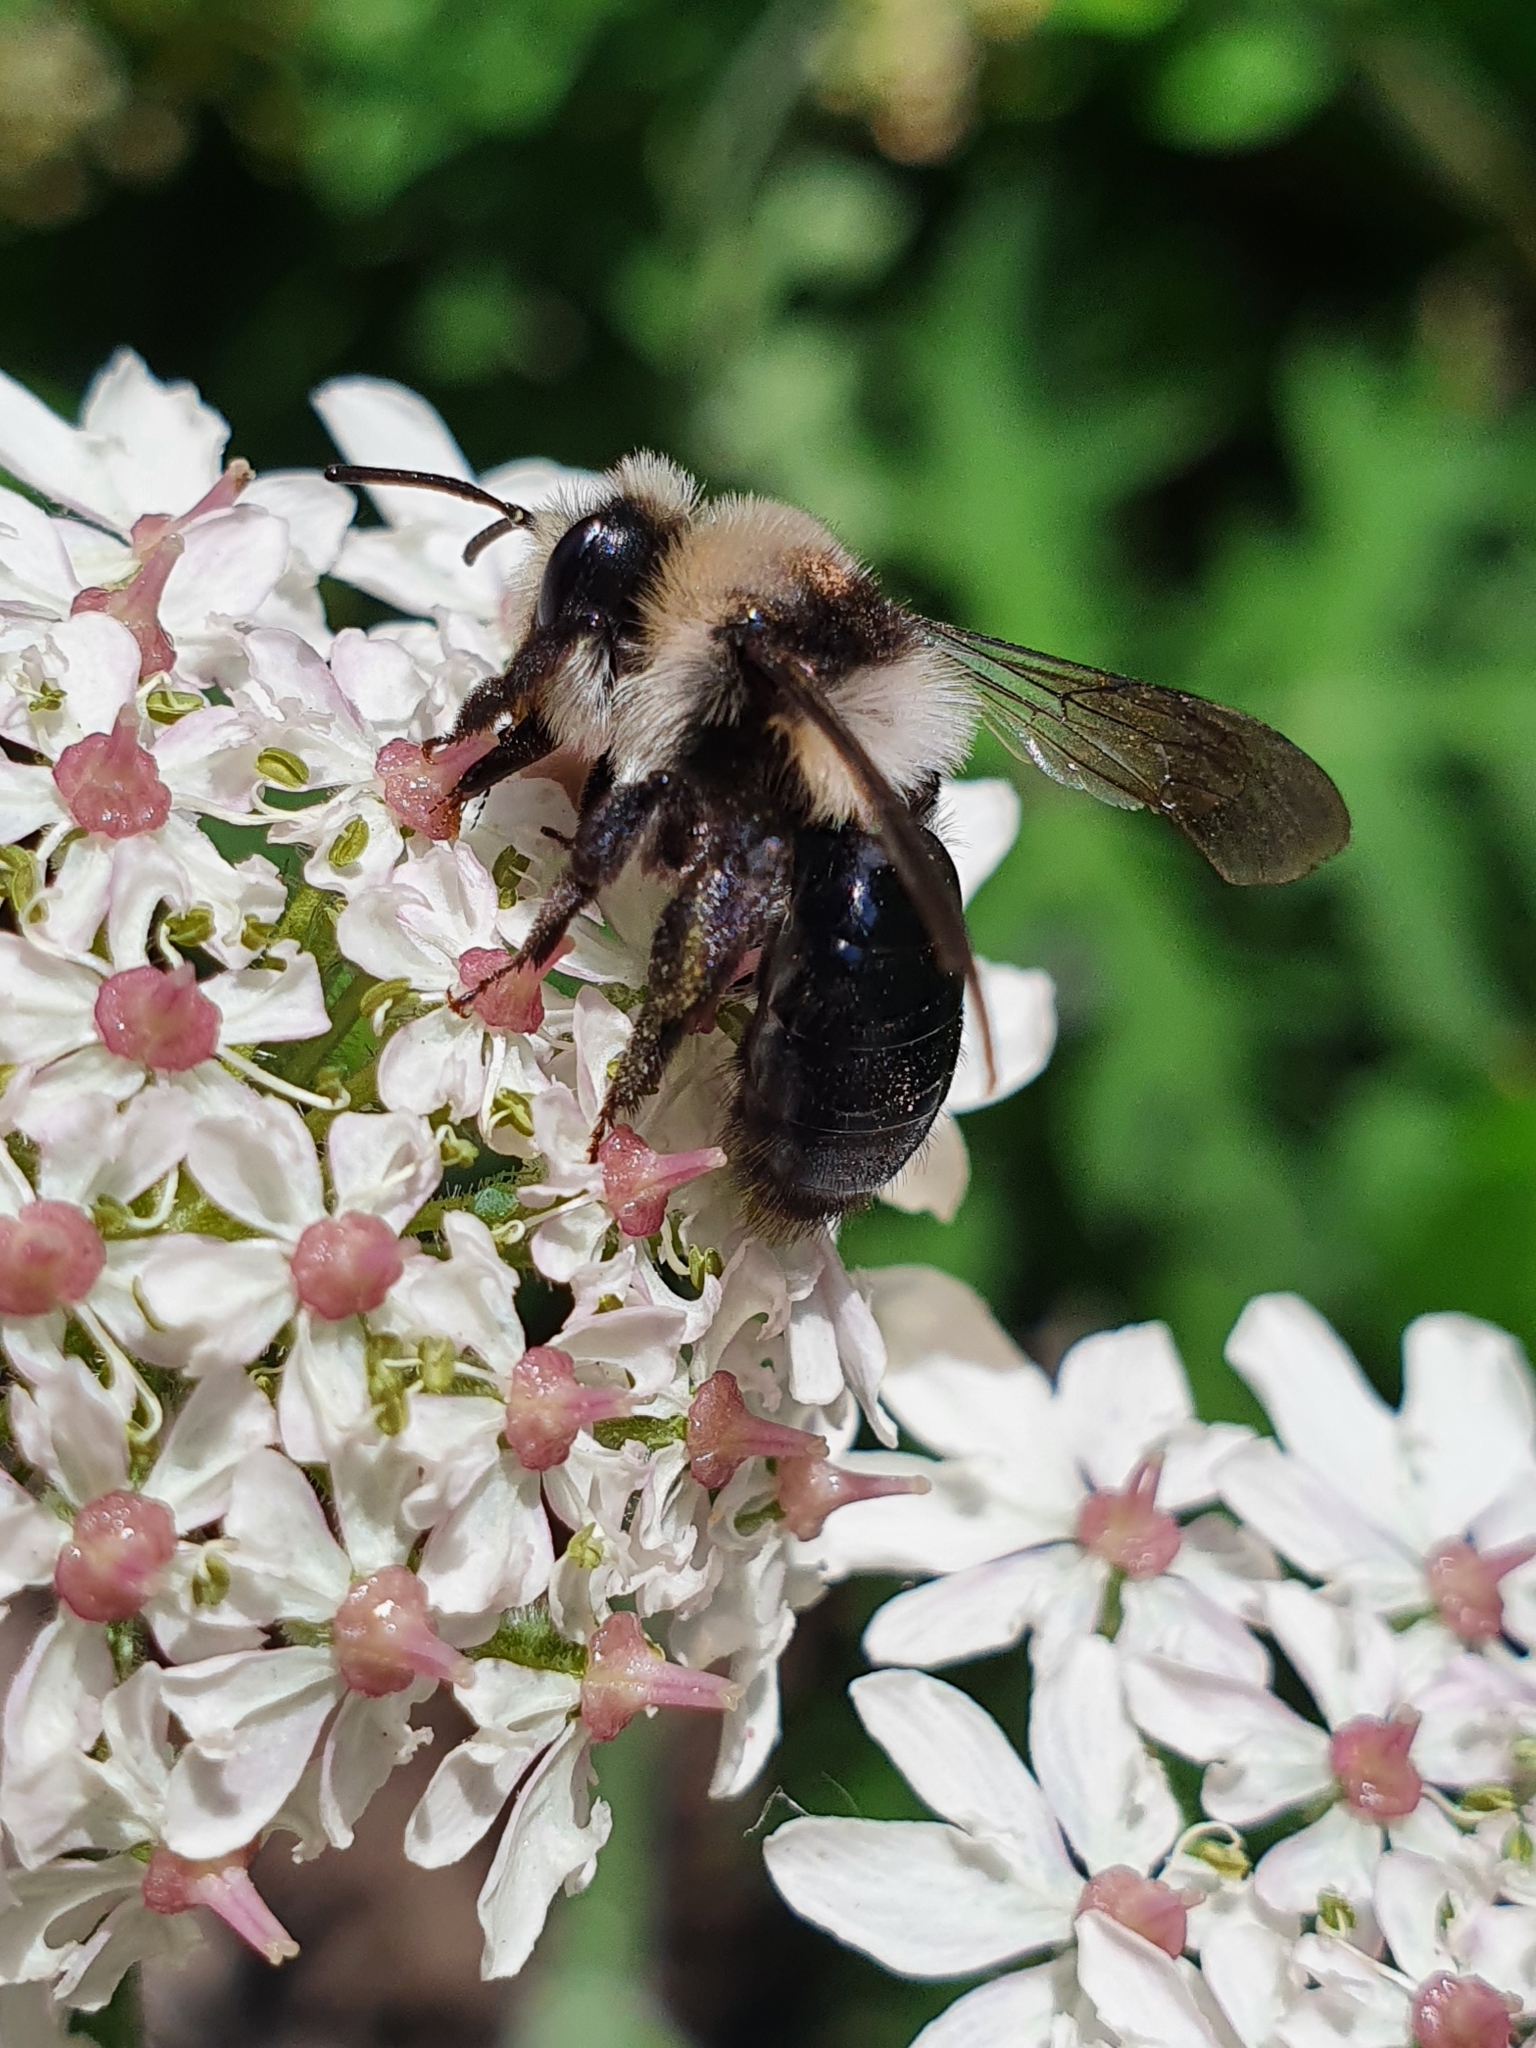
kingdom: Animalia
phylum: Arthropoda
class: Insecta
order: Hymenoptera
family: Andrenidae
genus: Andrena
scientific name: Andrena cineraria
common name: Ashy mining bee
